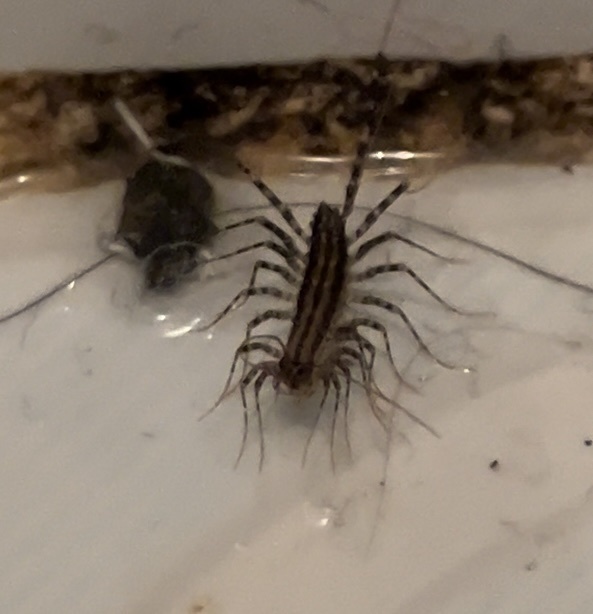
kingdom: Animalia
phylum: Arthropoda
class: Chilopoda
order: Scutigeromorpha
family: Scutigeridae
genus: Scutigera
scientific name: Scutigera coleoptrata
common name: House centipede
